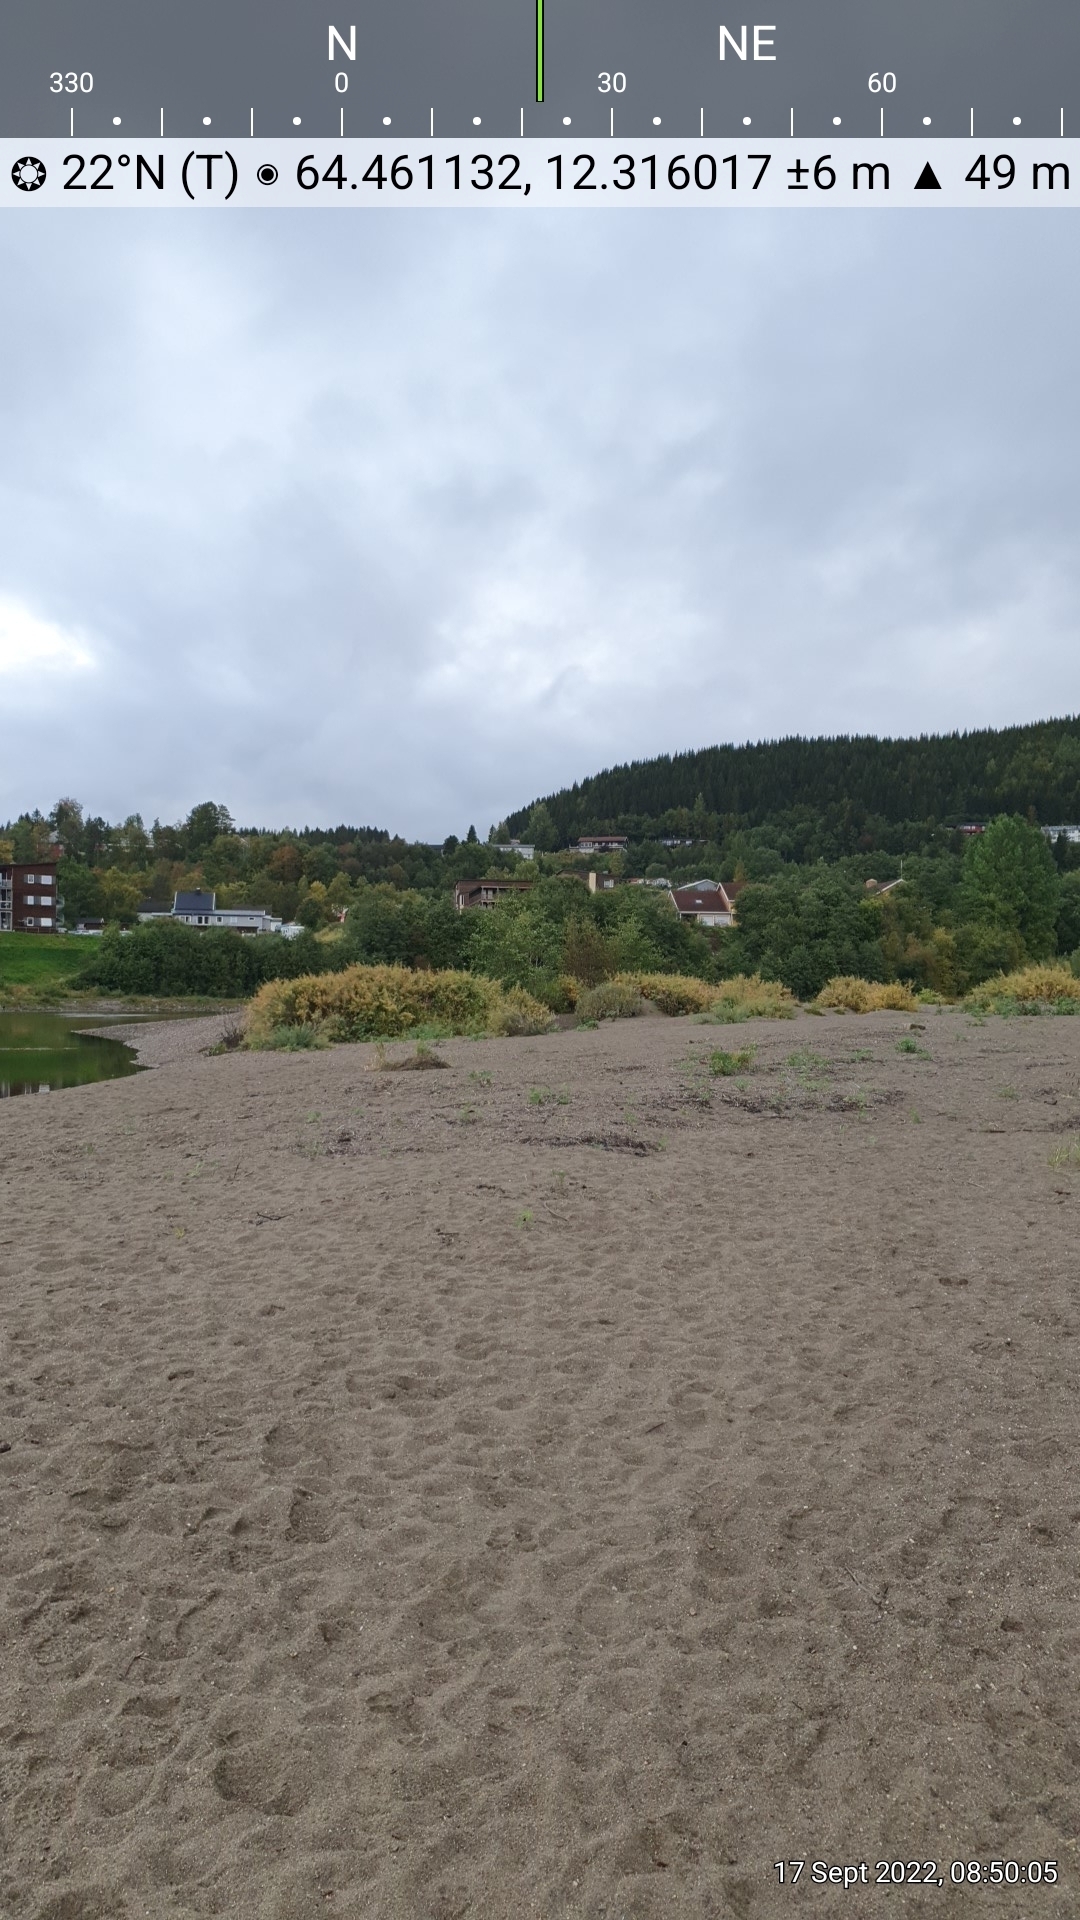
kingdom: Plantae
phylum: Tracheophyta
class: Magnoliopsida
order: Caryophyllales
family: Tamaricaceae
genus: Myricaria
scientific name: Myricaria germanica
